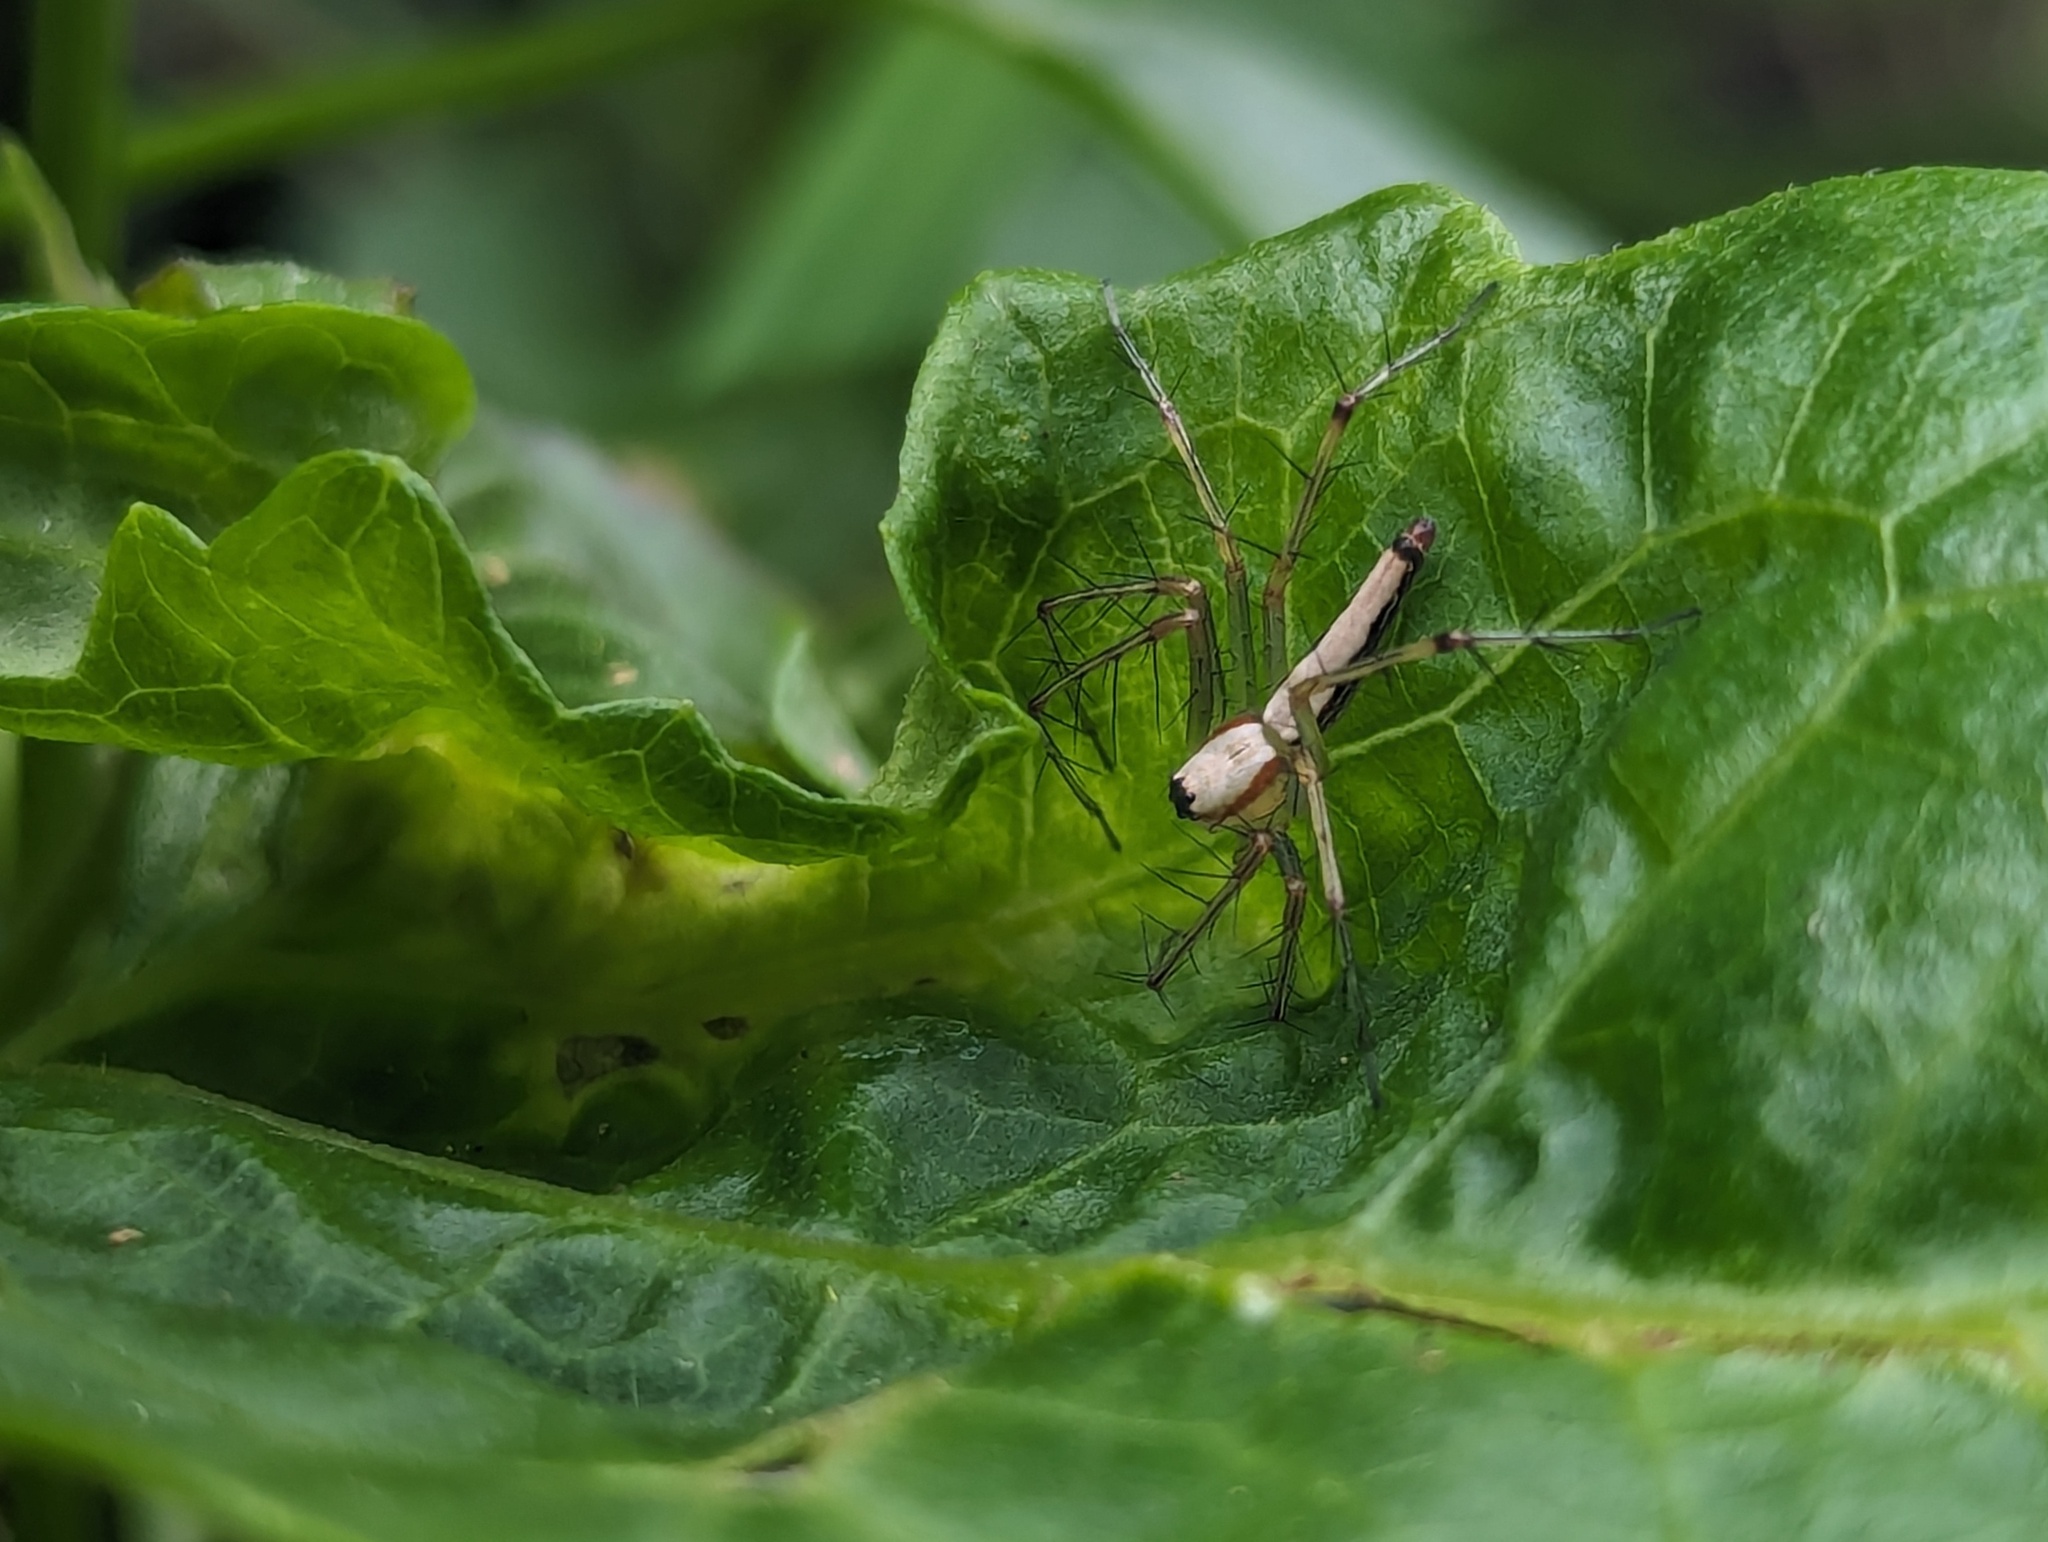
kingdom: Animalia
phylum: Arthropoda
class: Arachnida
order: Araneae
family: Oxyopidae
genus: Oxyopes
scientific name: Oxyopes shweta
